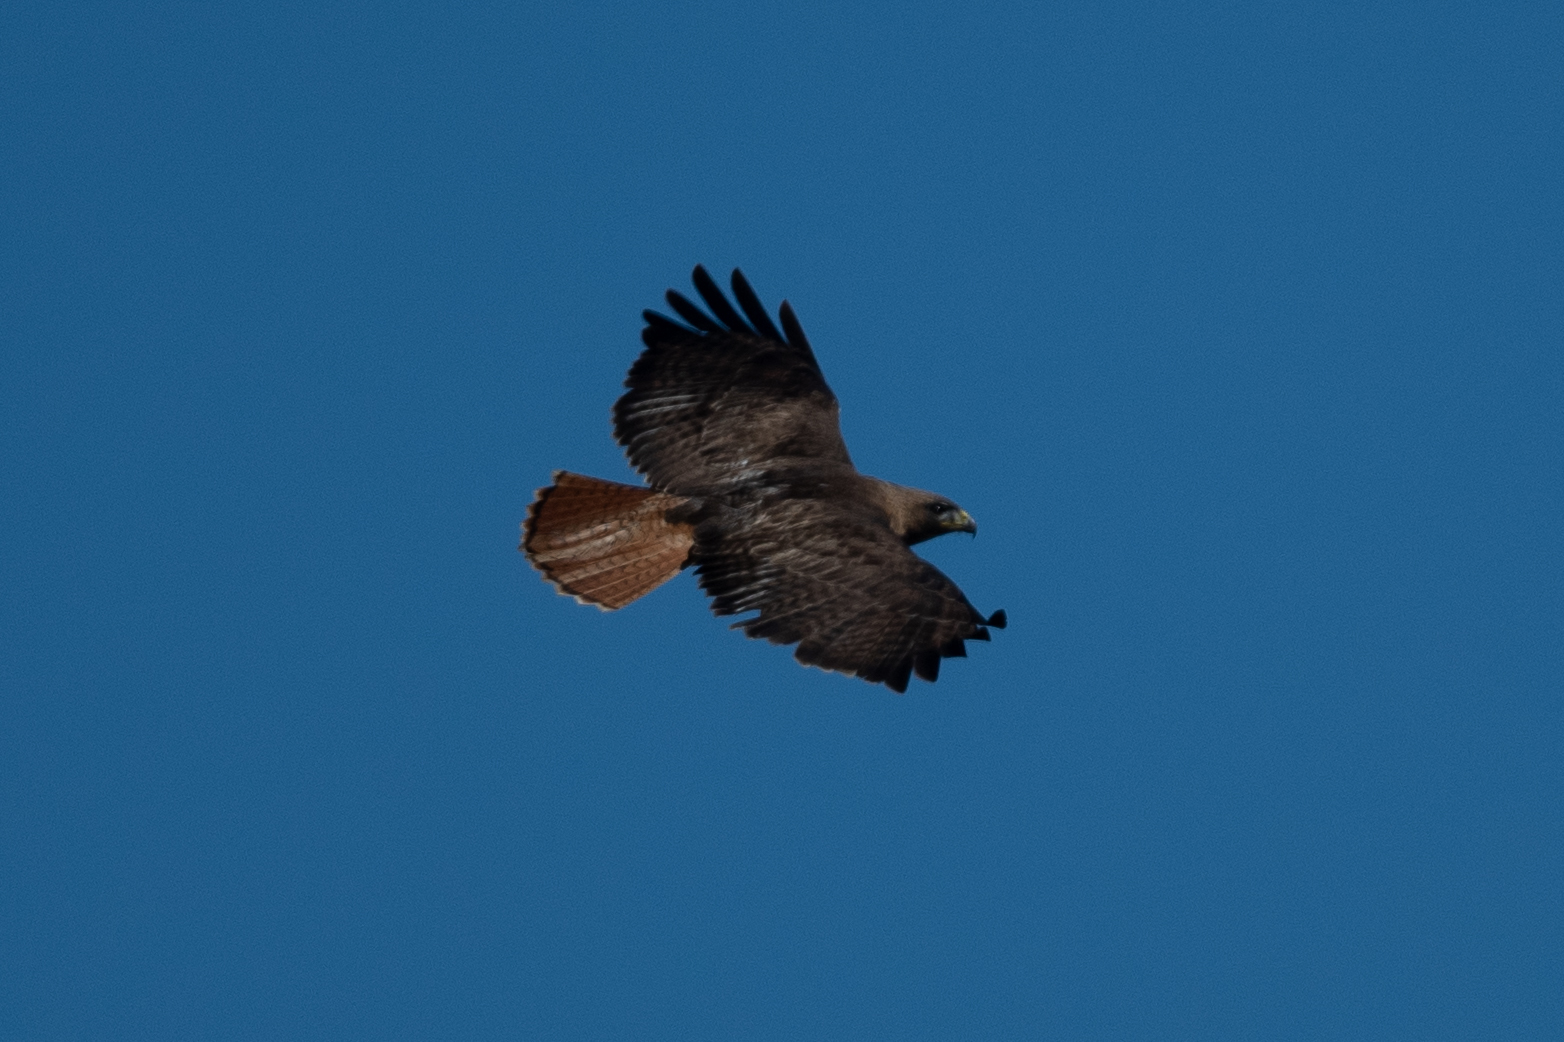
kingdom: Animalia
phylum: Chordata
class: Aves
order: Accipitriformes
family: Accipitridae
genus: Buteo
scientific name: Buteo jamaicensis
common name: Red-tailed hawk
